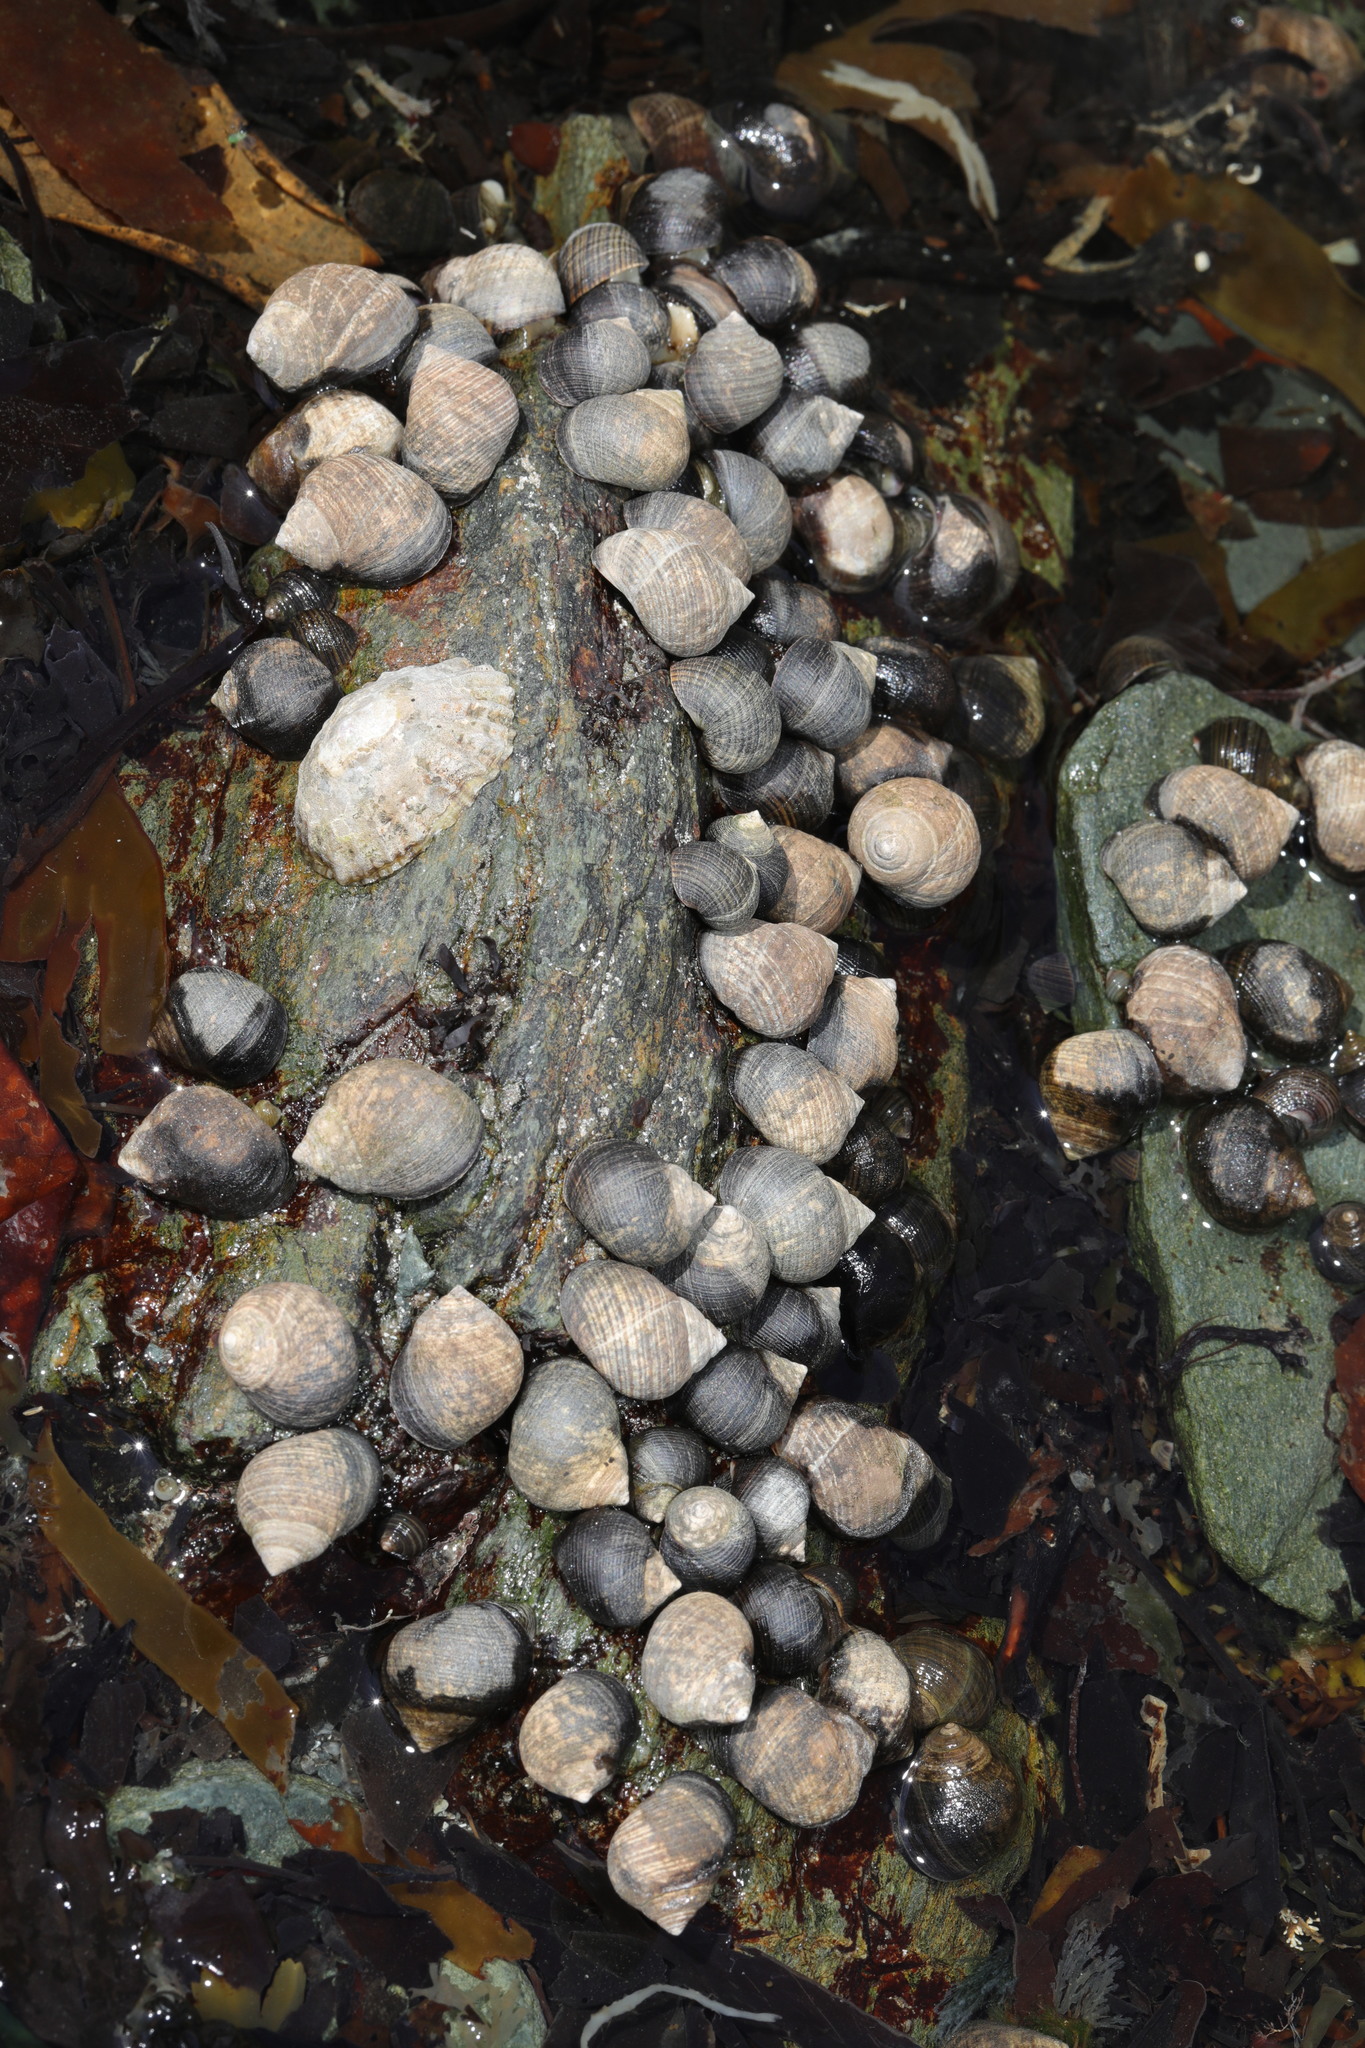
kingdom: Animalia
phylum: Mollusca
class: Gastropoda
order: Littorinimorpha
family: Littorinidae
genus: Littorina
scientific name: Littorina littorea
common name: Common periwinkle
